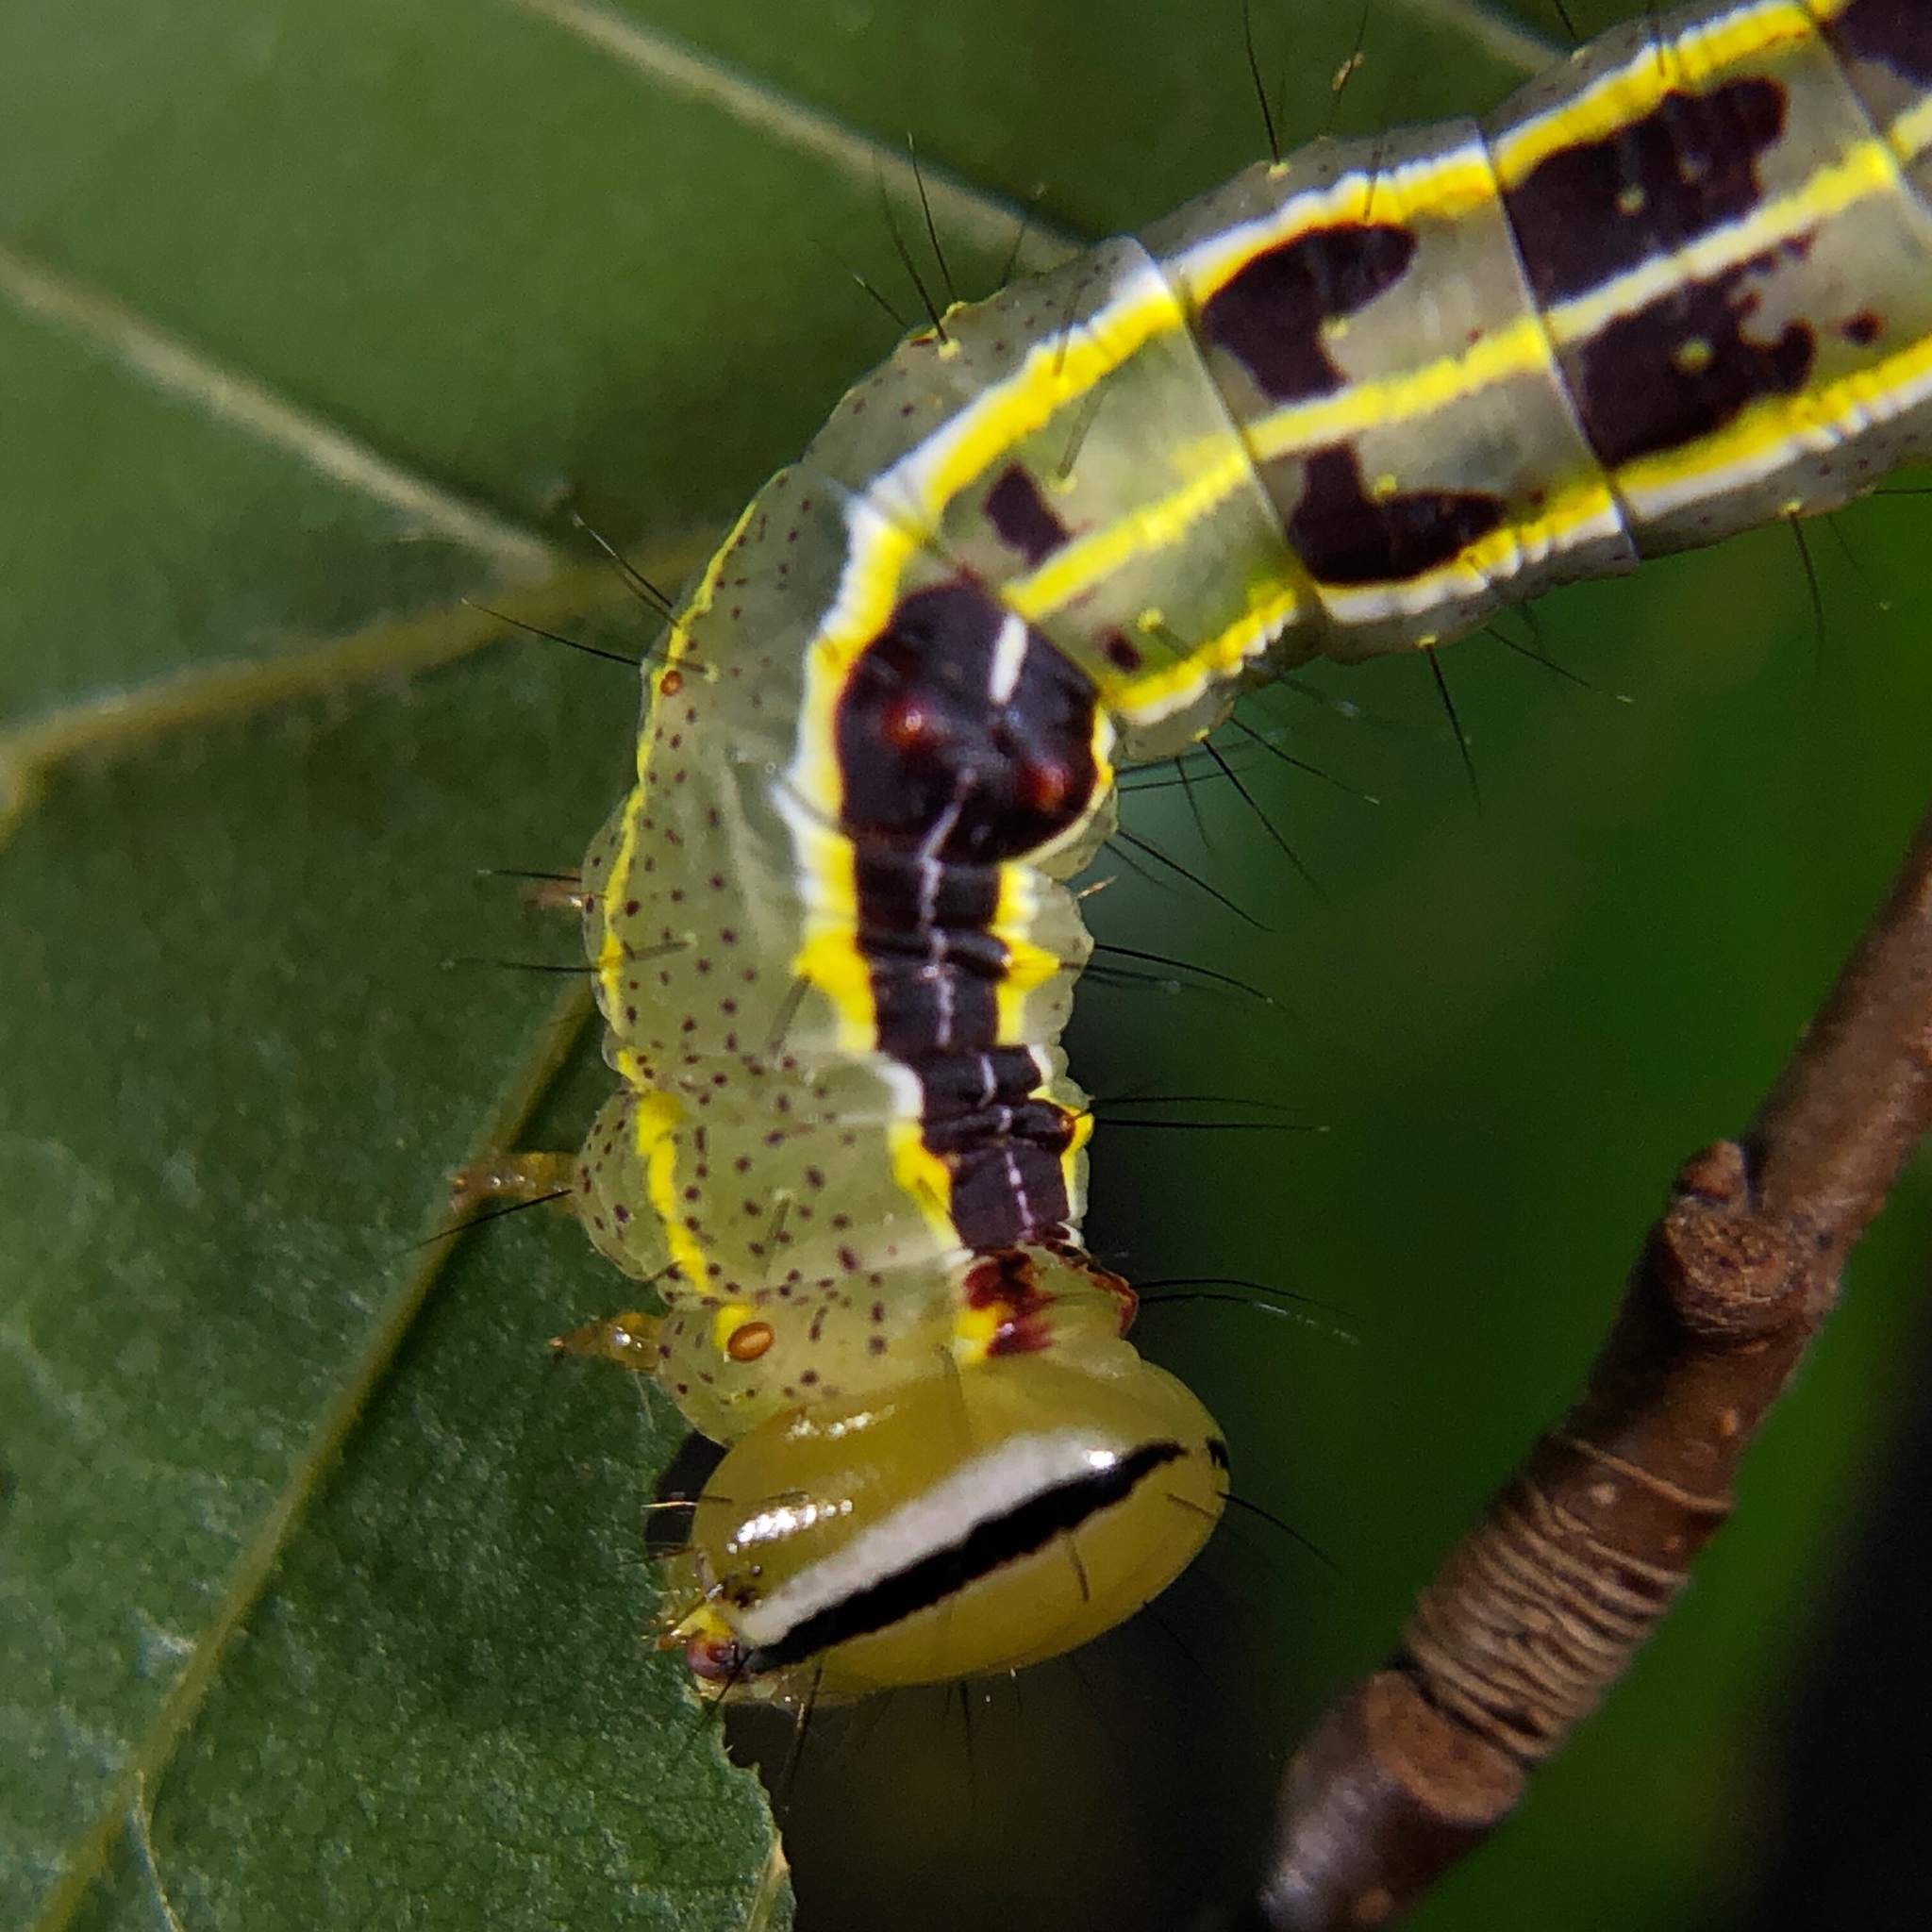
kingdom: Animalia
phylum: Arthropoda
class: Insecta
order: Lepidoptera
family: Notodontidae
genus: Lochmaeus
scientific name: Lochmaeus manteo
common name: Variable oakleaf caterpillar moth
